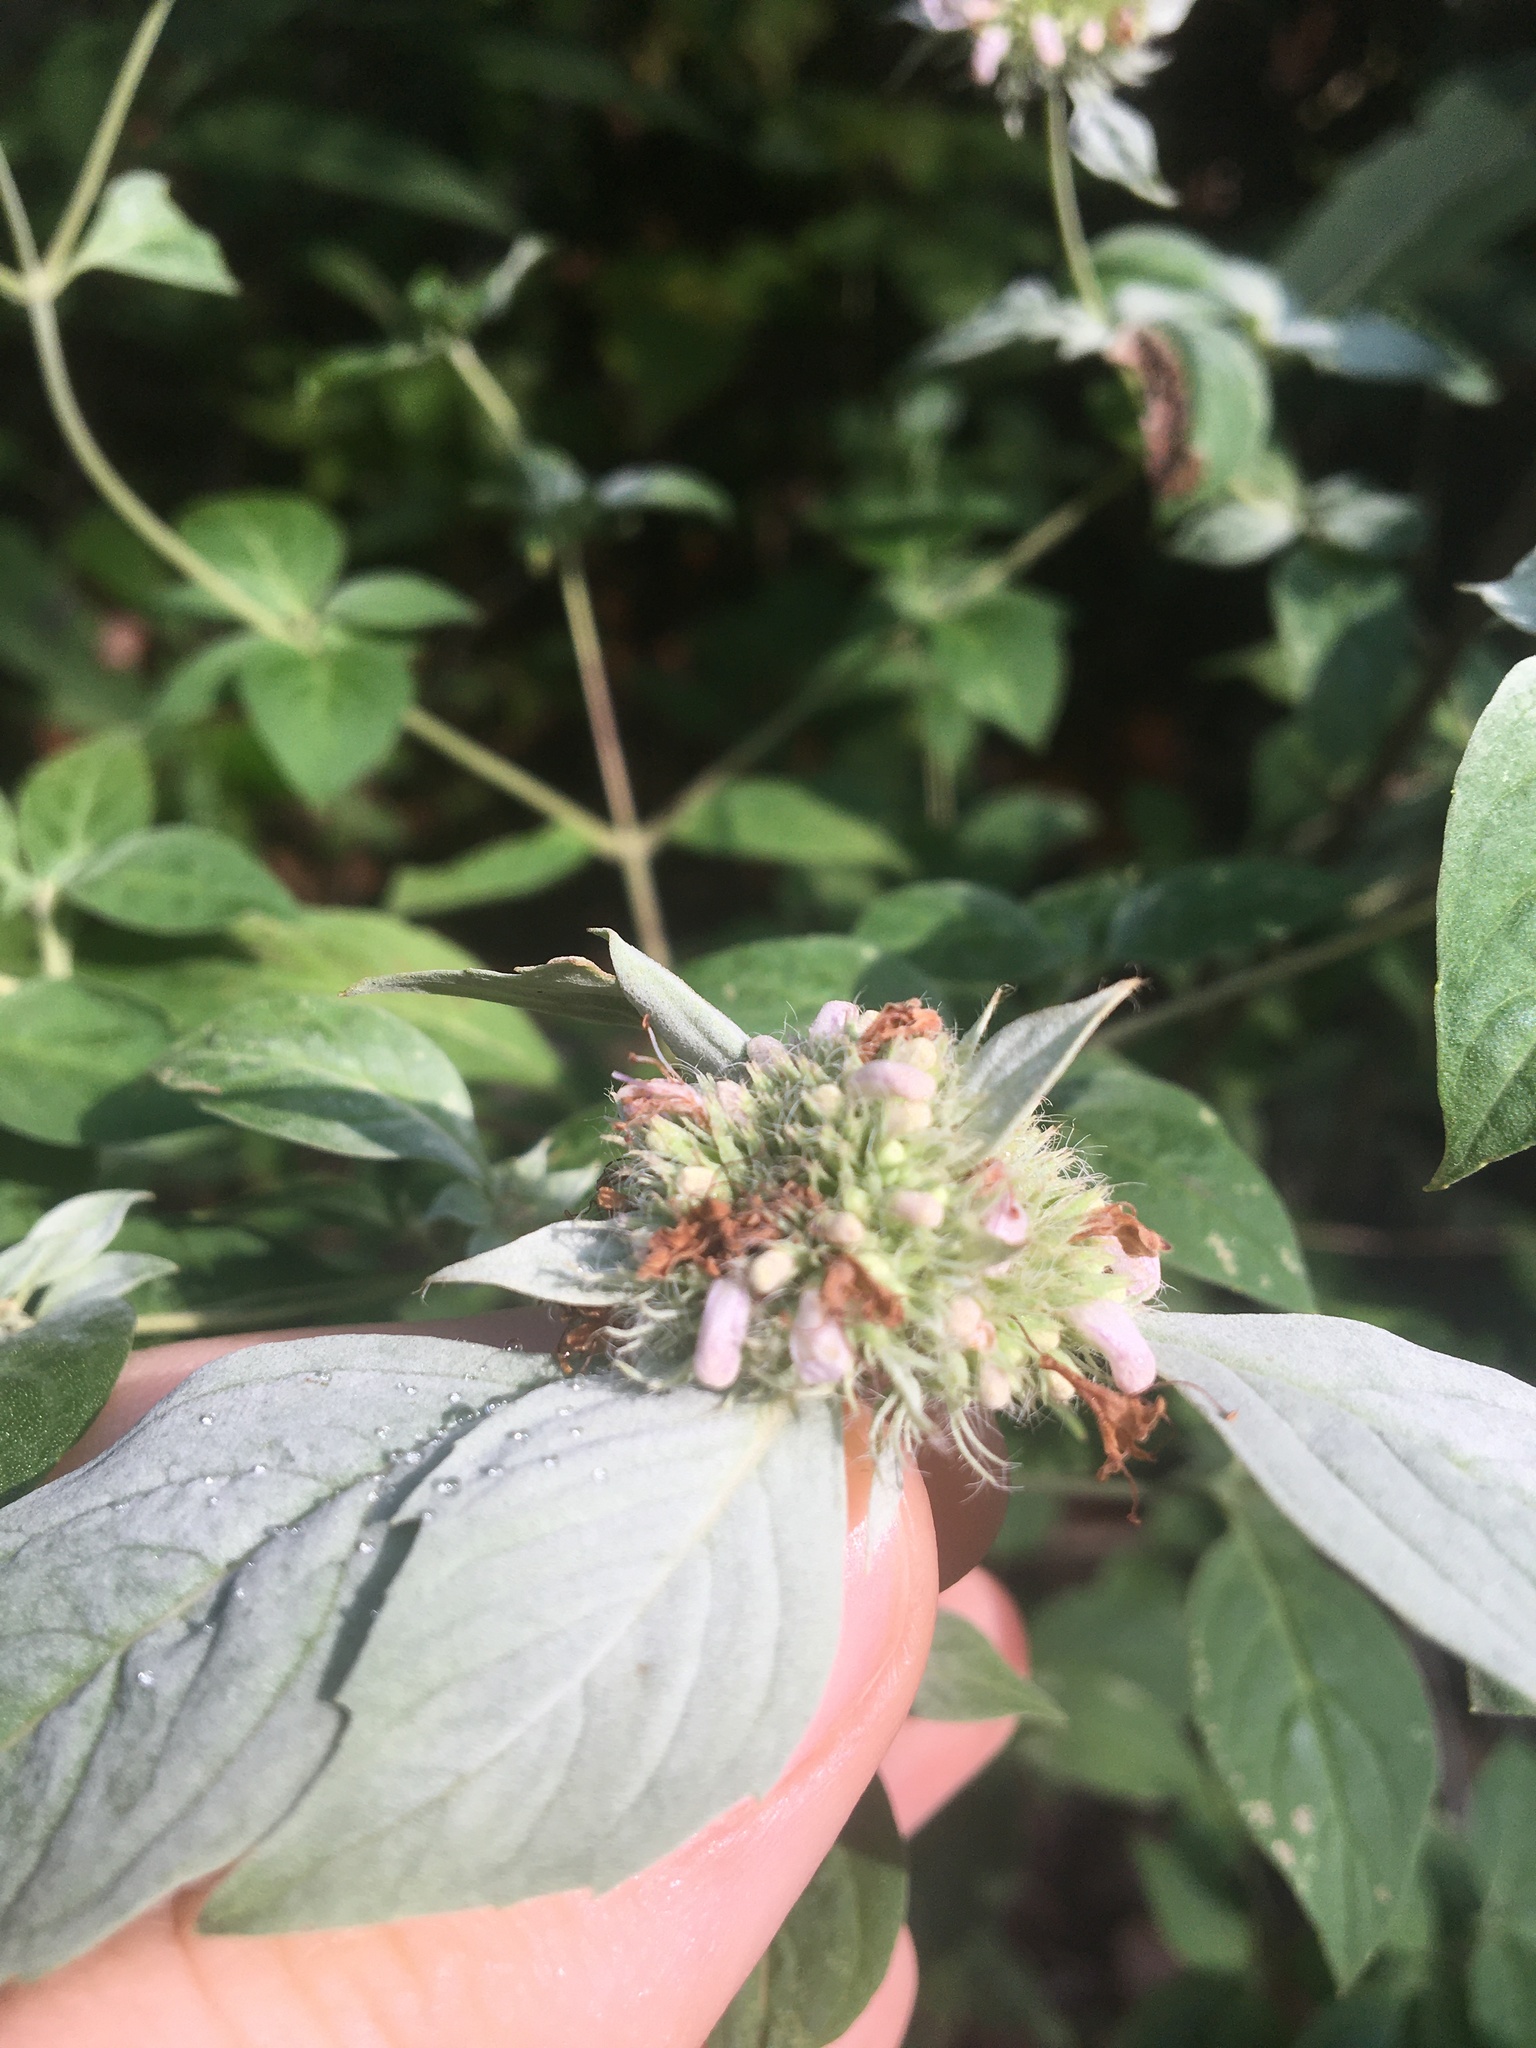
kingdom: Plantae
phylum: Tracheophyta
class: Magnoliopsida
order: Lamiales
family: Lamiaceae
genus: Pycnanthemum
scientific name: Pycnanthemum incanum
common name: Hoary mountain-mint
